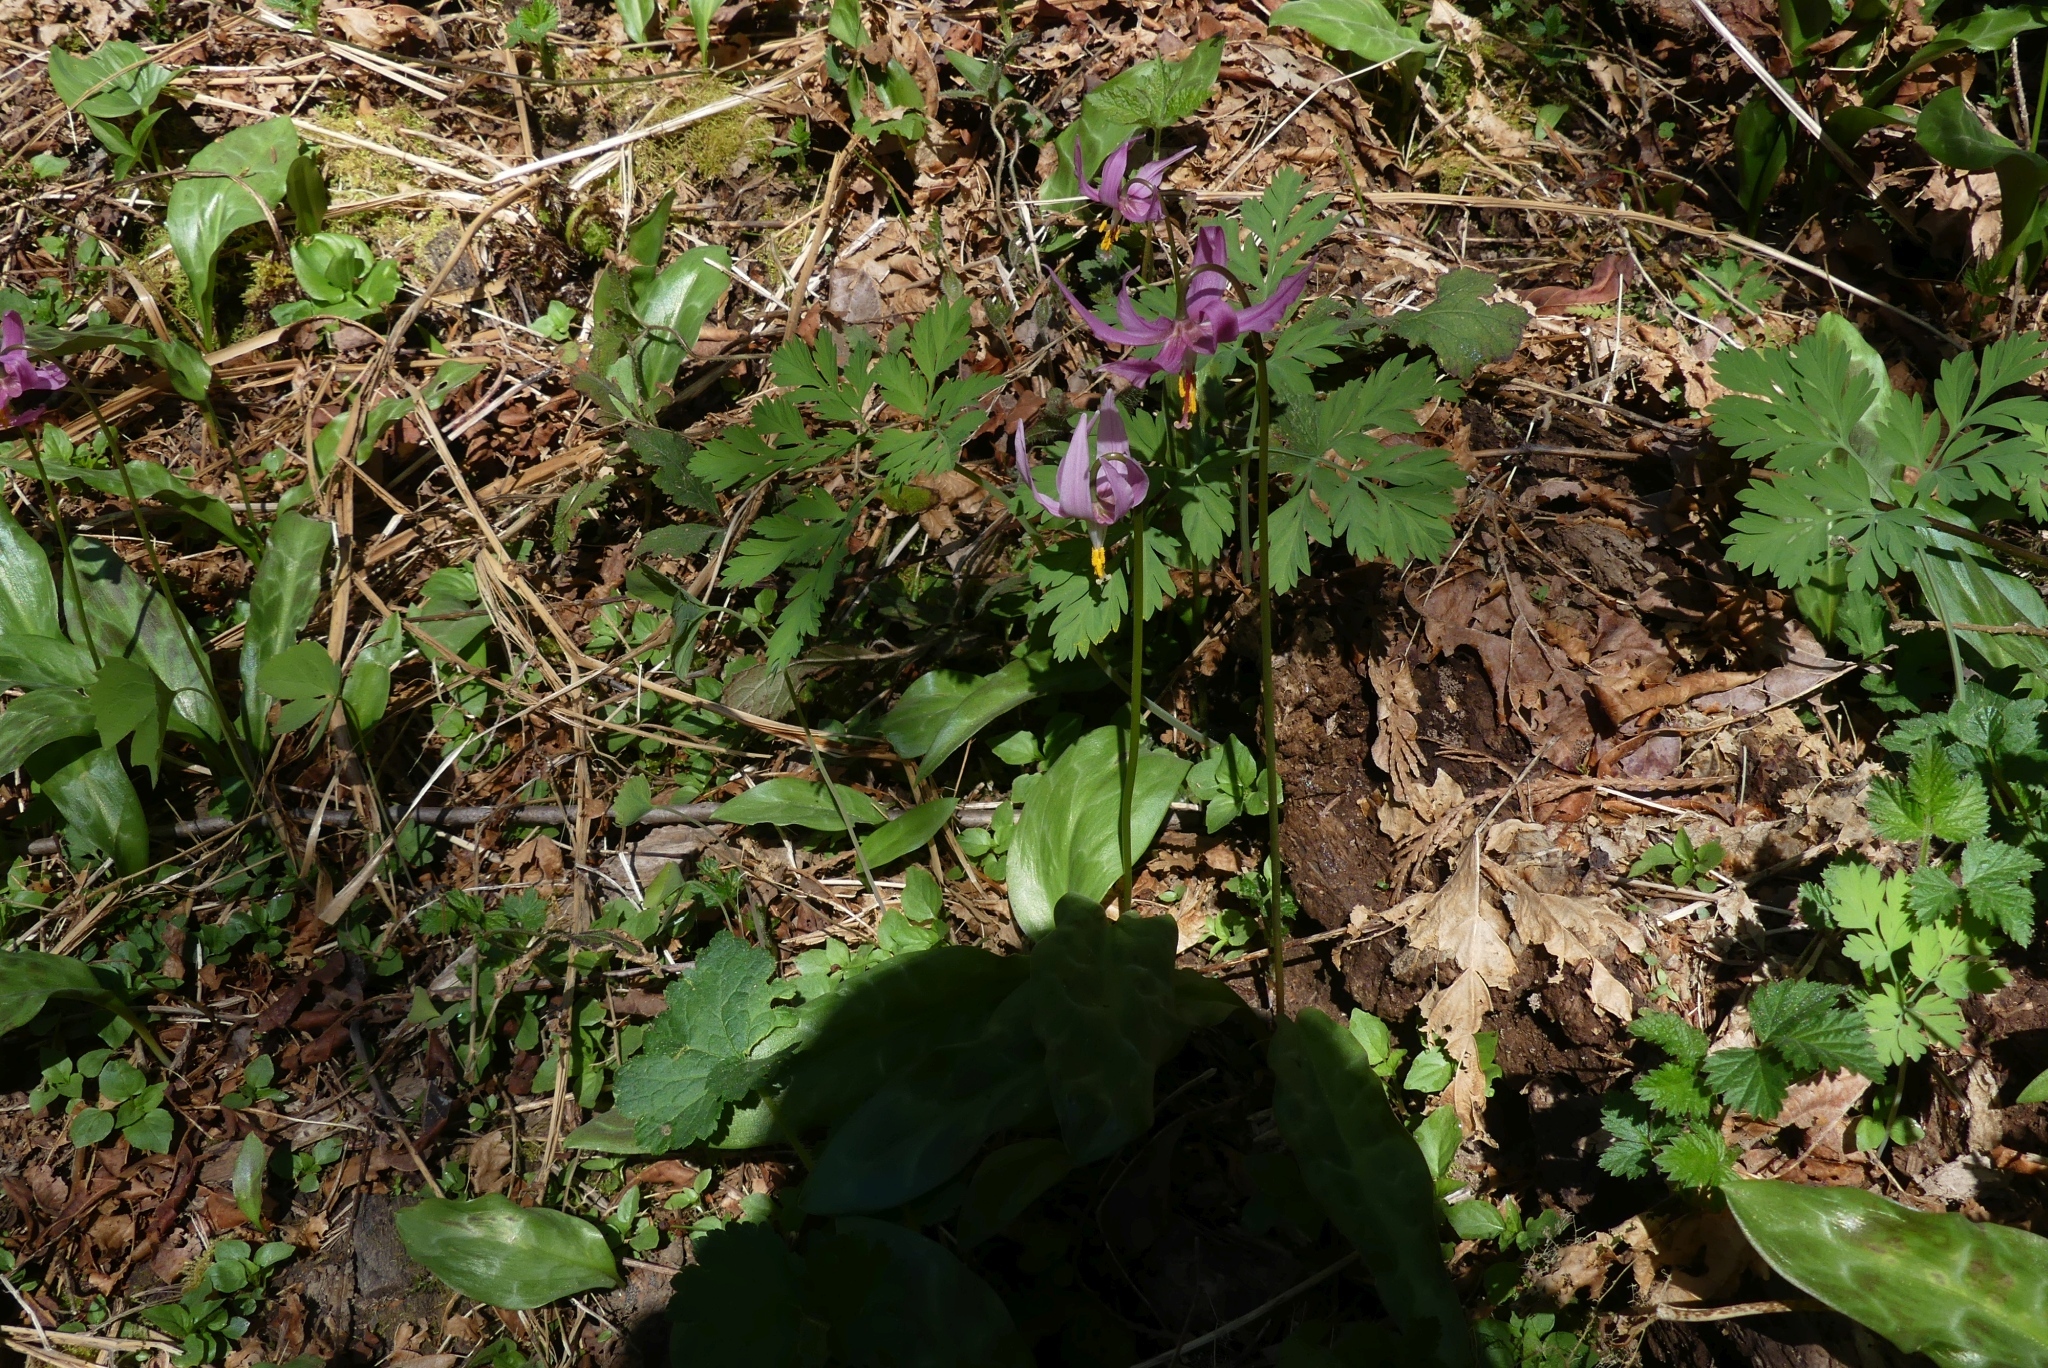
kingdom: Plantae
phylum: Tracheophyta
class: Liliopsida
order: Liliales
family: Liliaceae
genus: Erythronium
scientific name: Erythronium revolutum
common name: Pink fawn-lily
